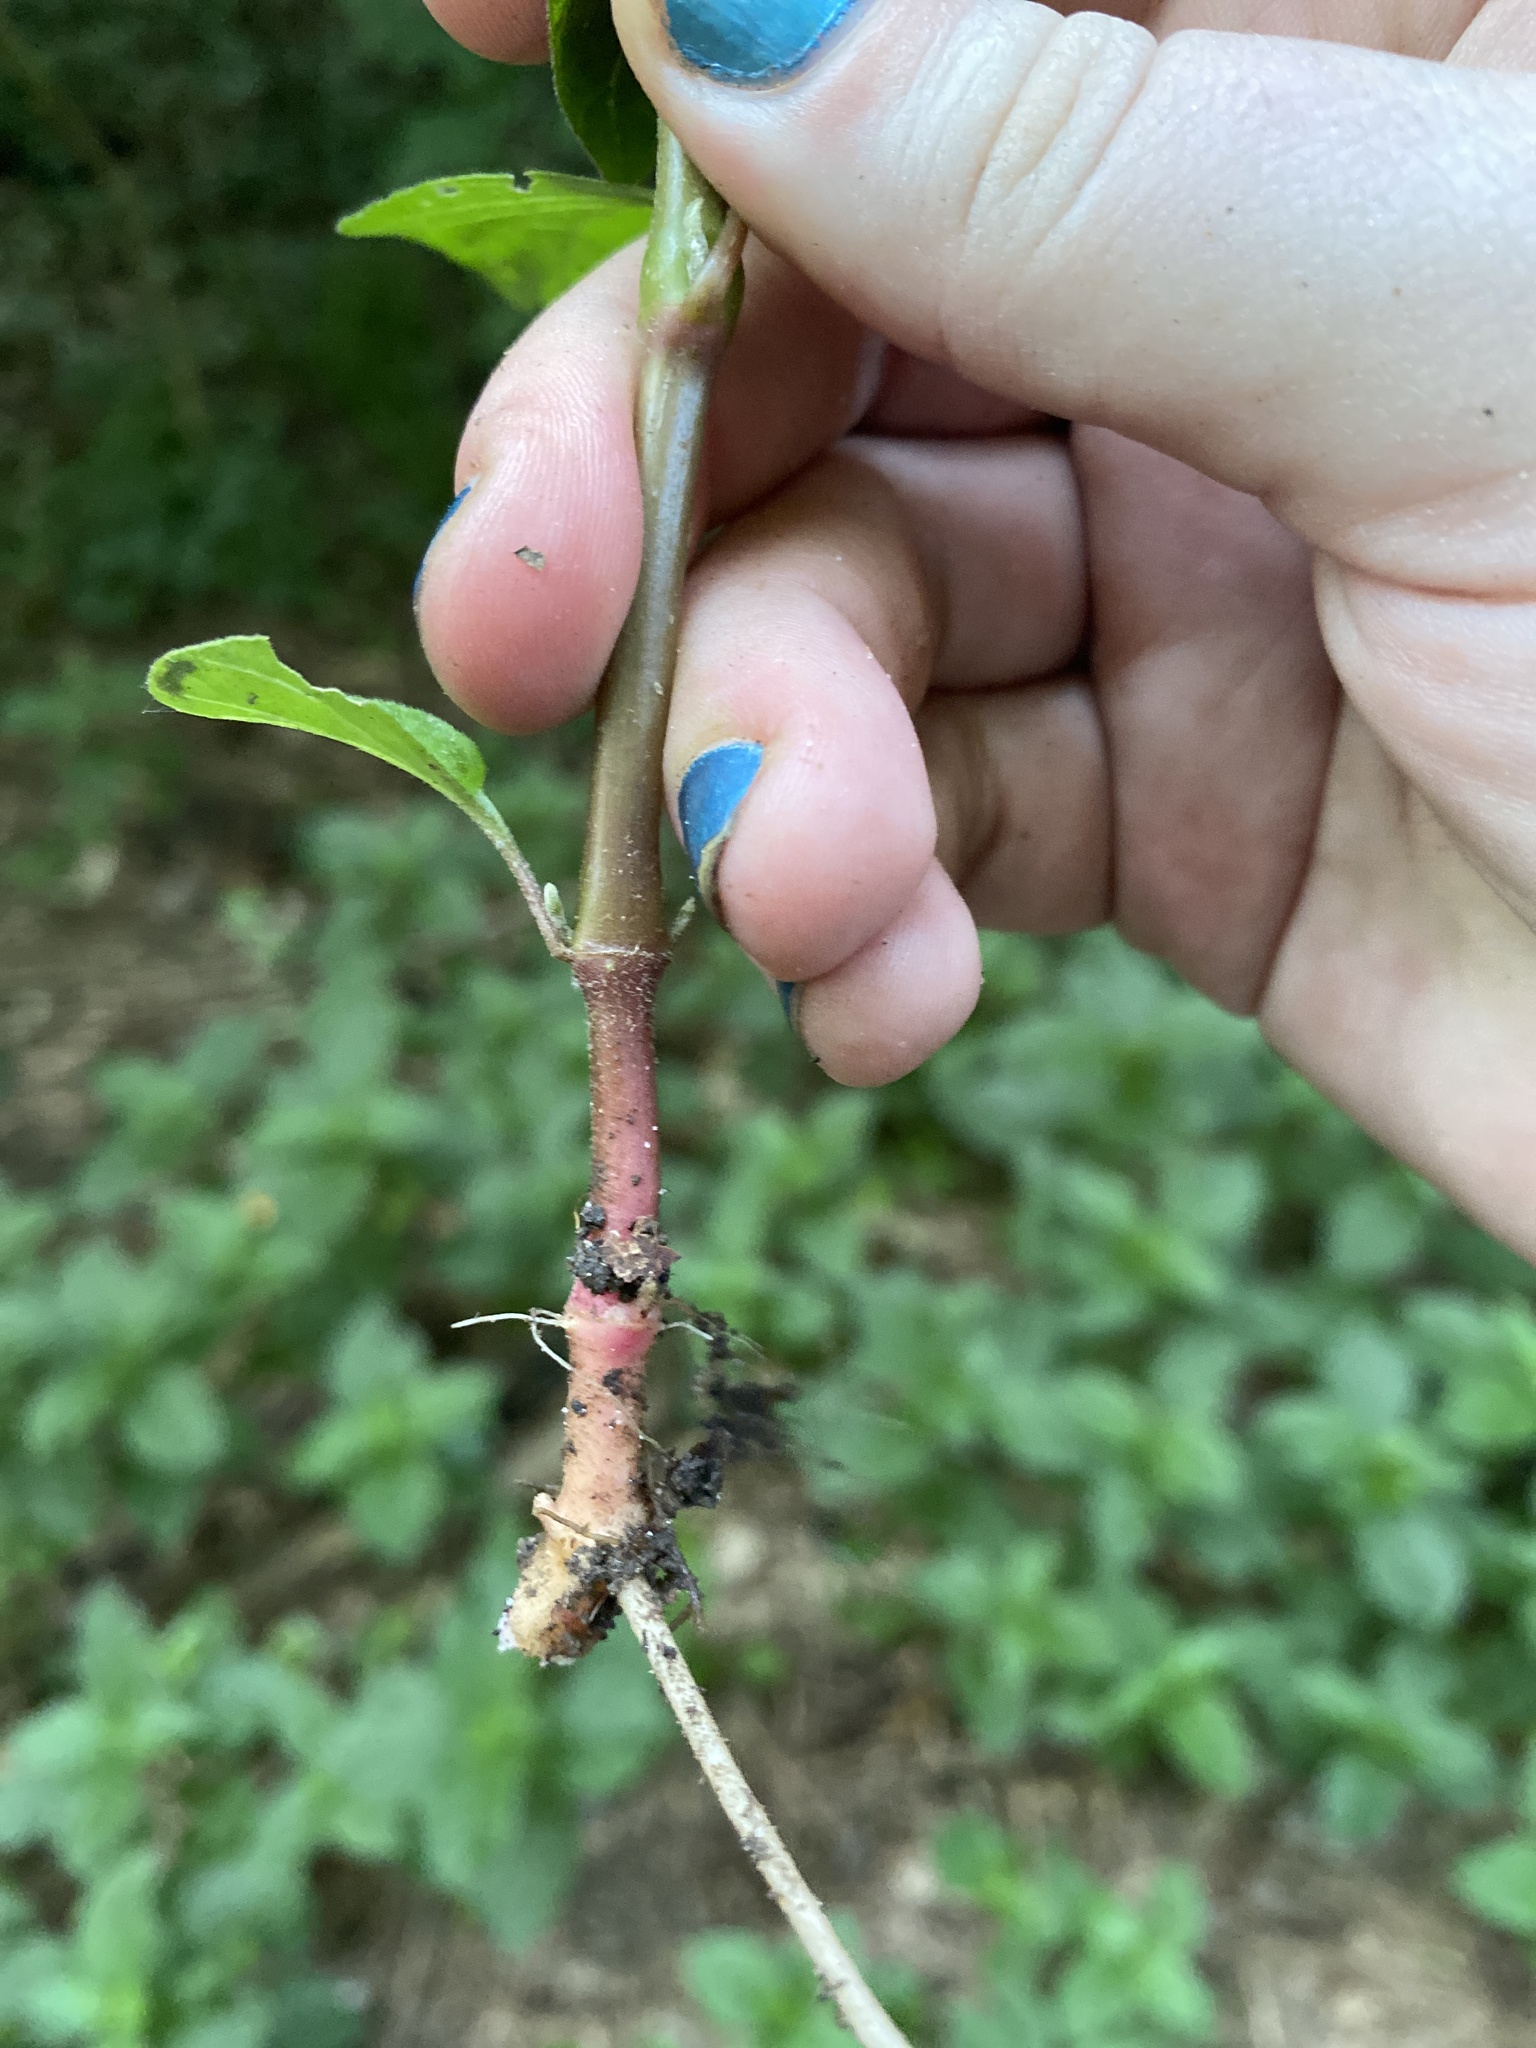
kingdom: Plantae
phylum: Tracheophyta
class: Magnoliopsida
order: Caryophyllales
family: Amaranthaceae
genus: Achyranthes
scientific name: Achyranthes bidentata
